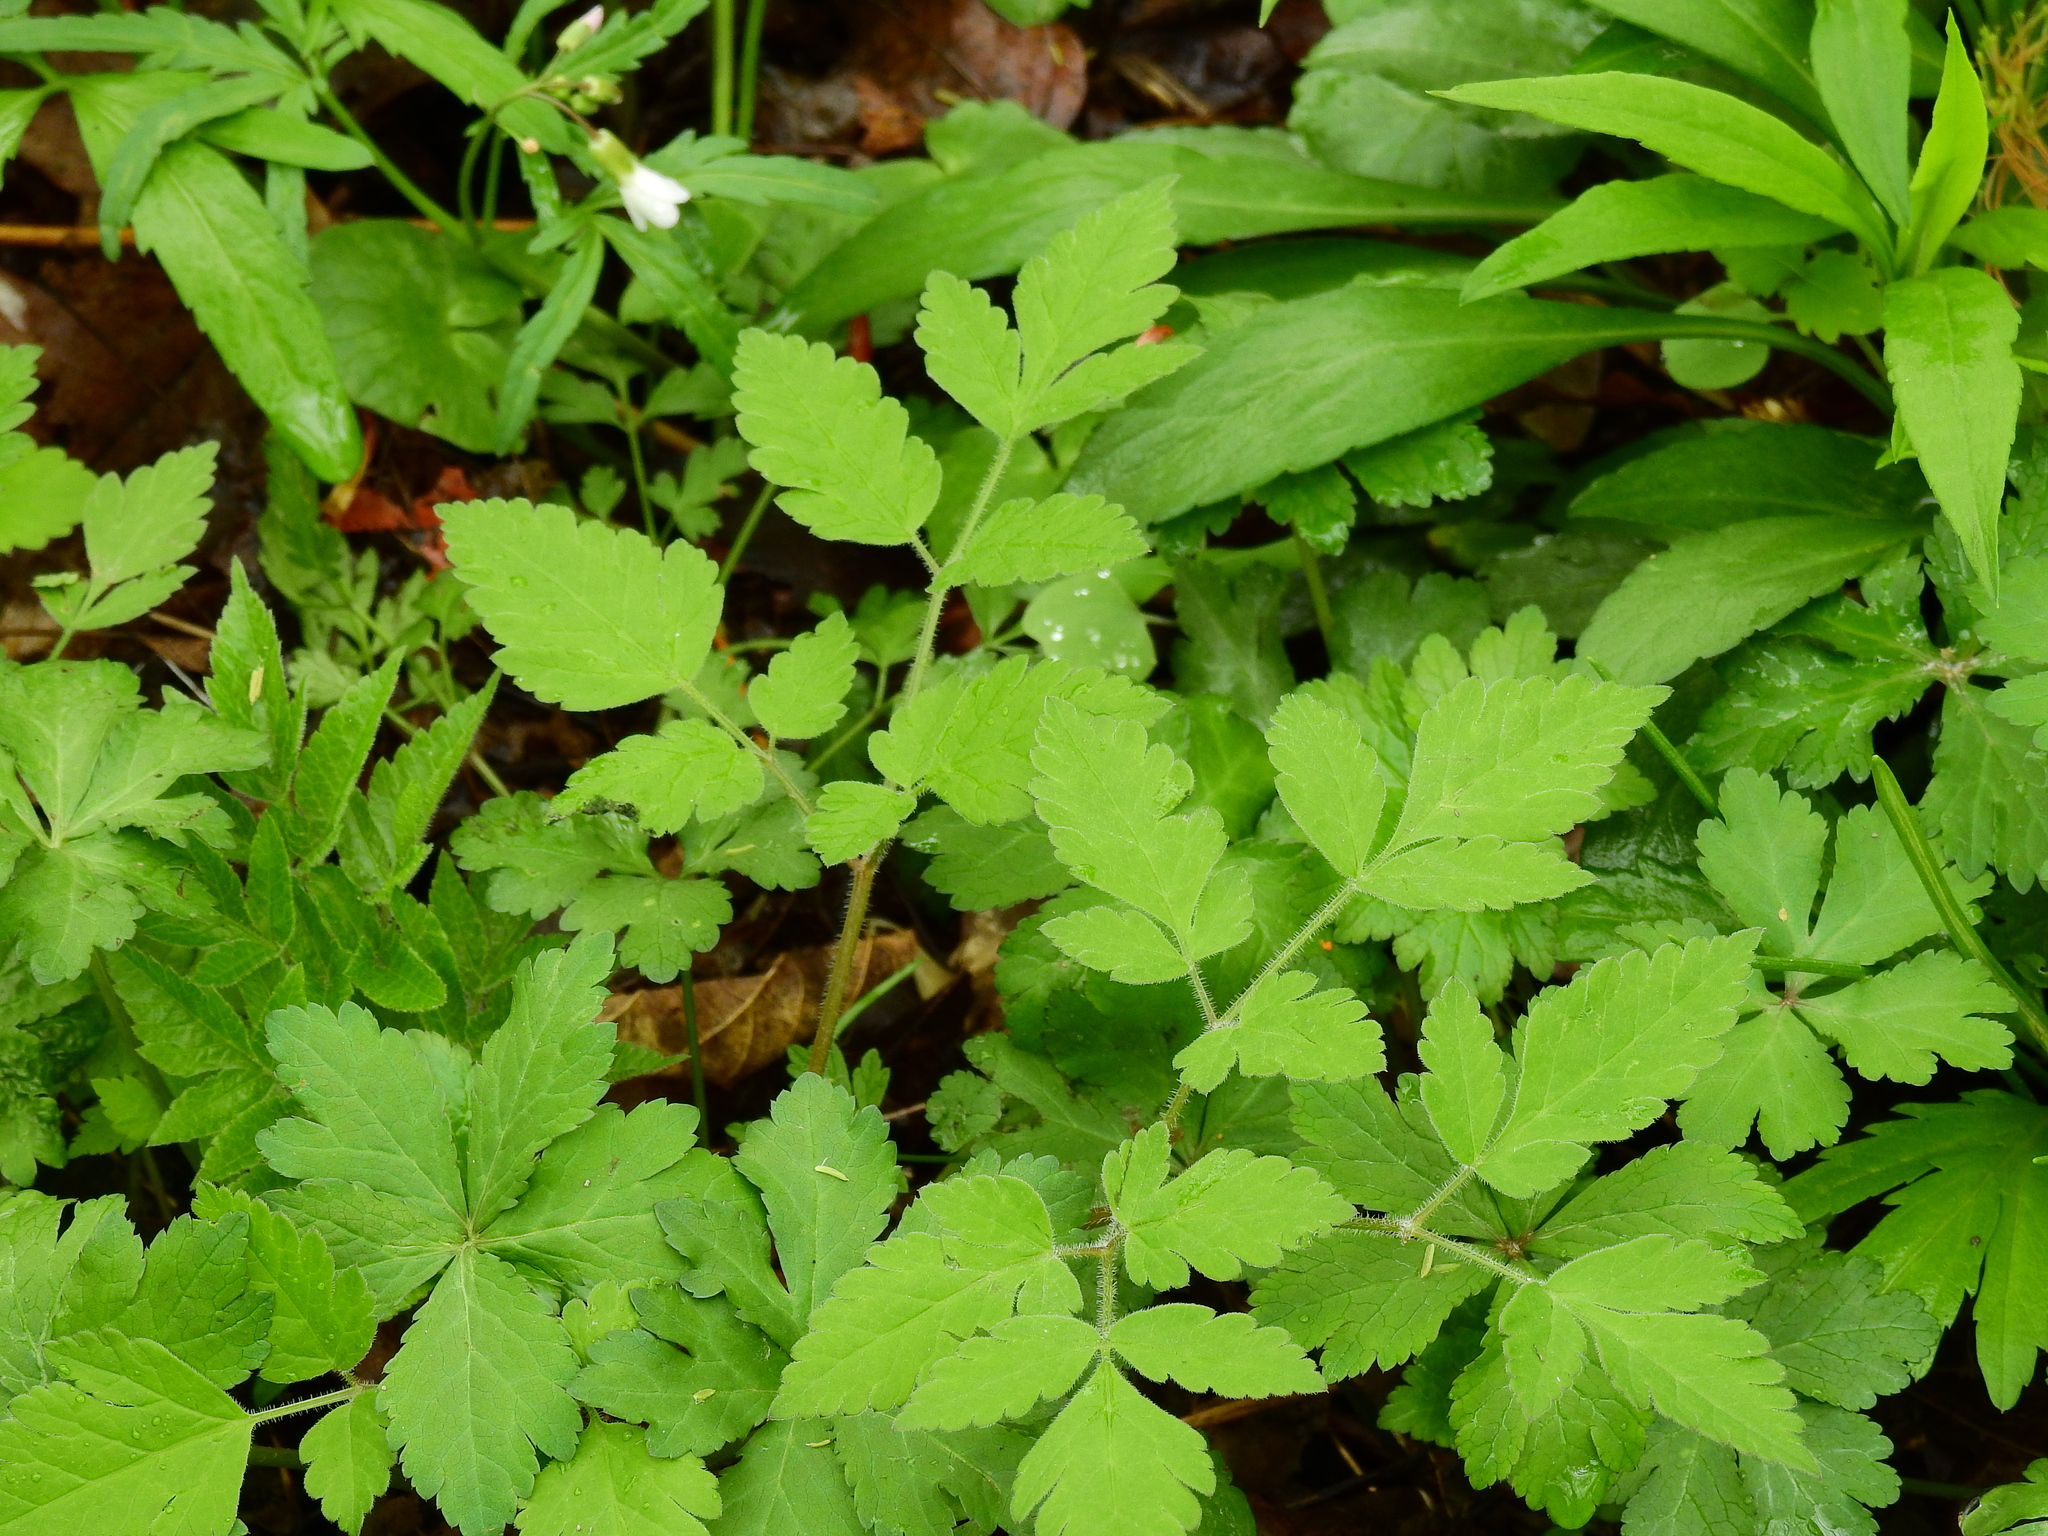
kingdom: Plantae
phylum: Tracheophyta
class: Magnoliopsida
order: Apiales
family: Apiaceae
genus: Osmorhiza
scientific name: Osmorhiza claytonii
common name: Hairy sweet cicely
